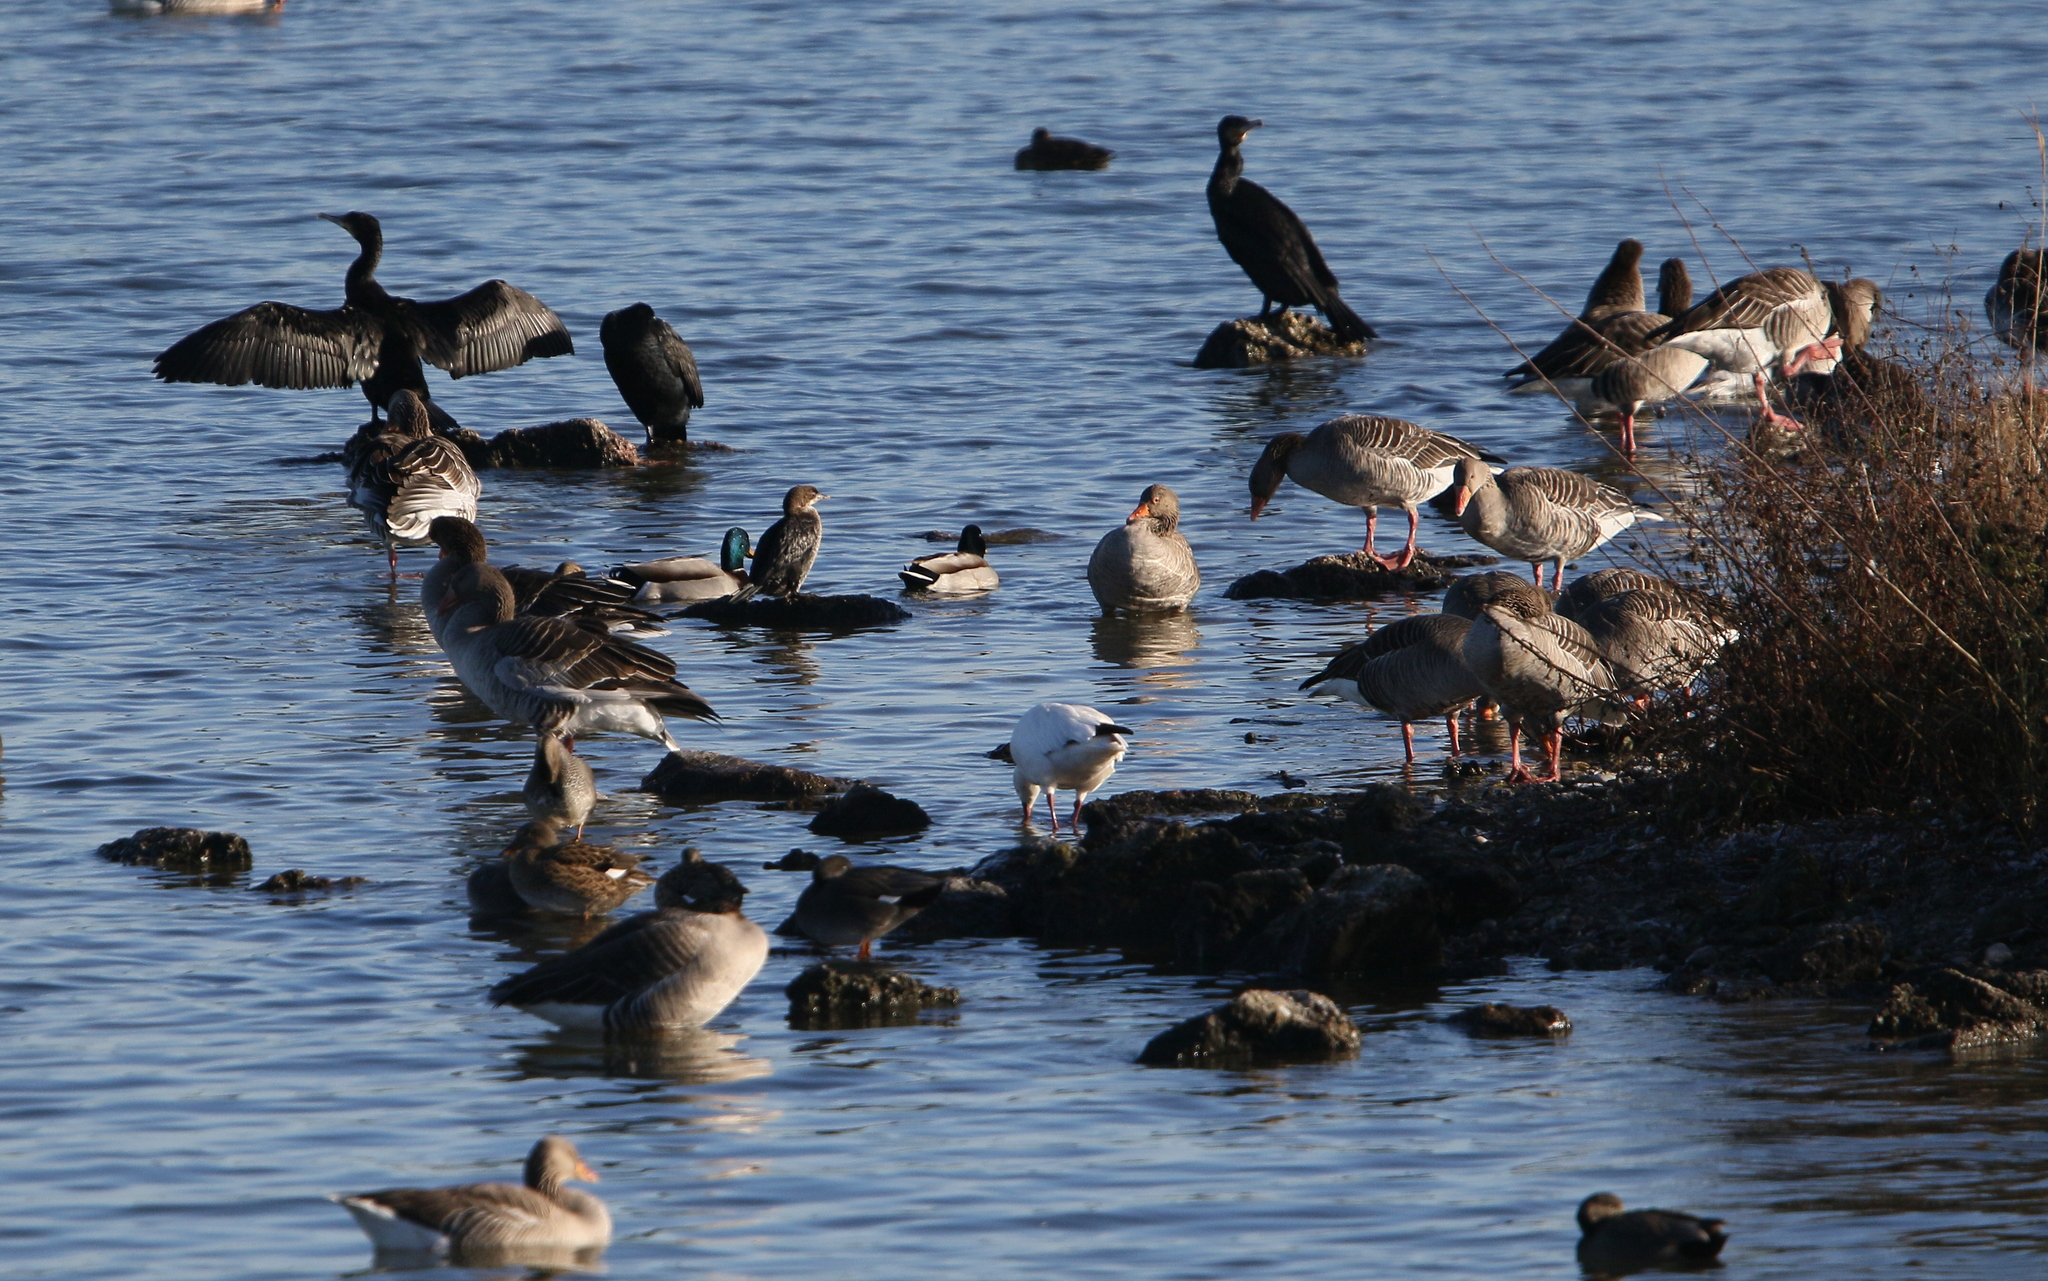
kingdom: Animalia
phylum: Chordata
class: Aves
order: Suliformes
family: Phalacrocoracidae
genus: Microcarbo
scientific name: Microcarbo pygmaeus
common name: Pygmy cormorant
